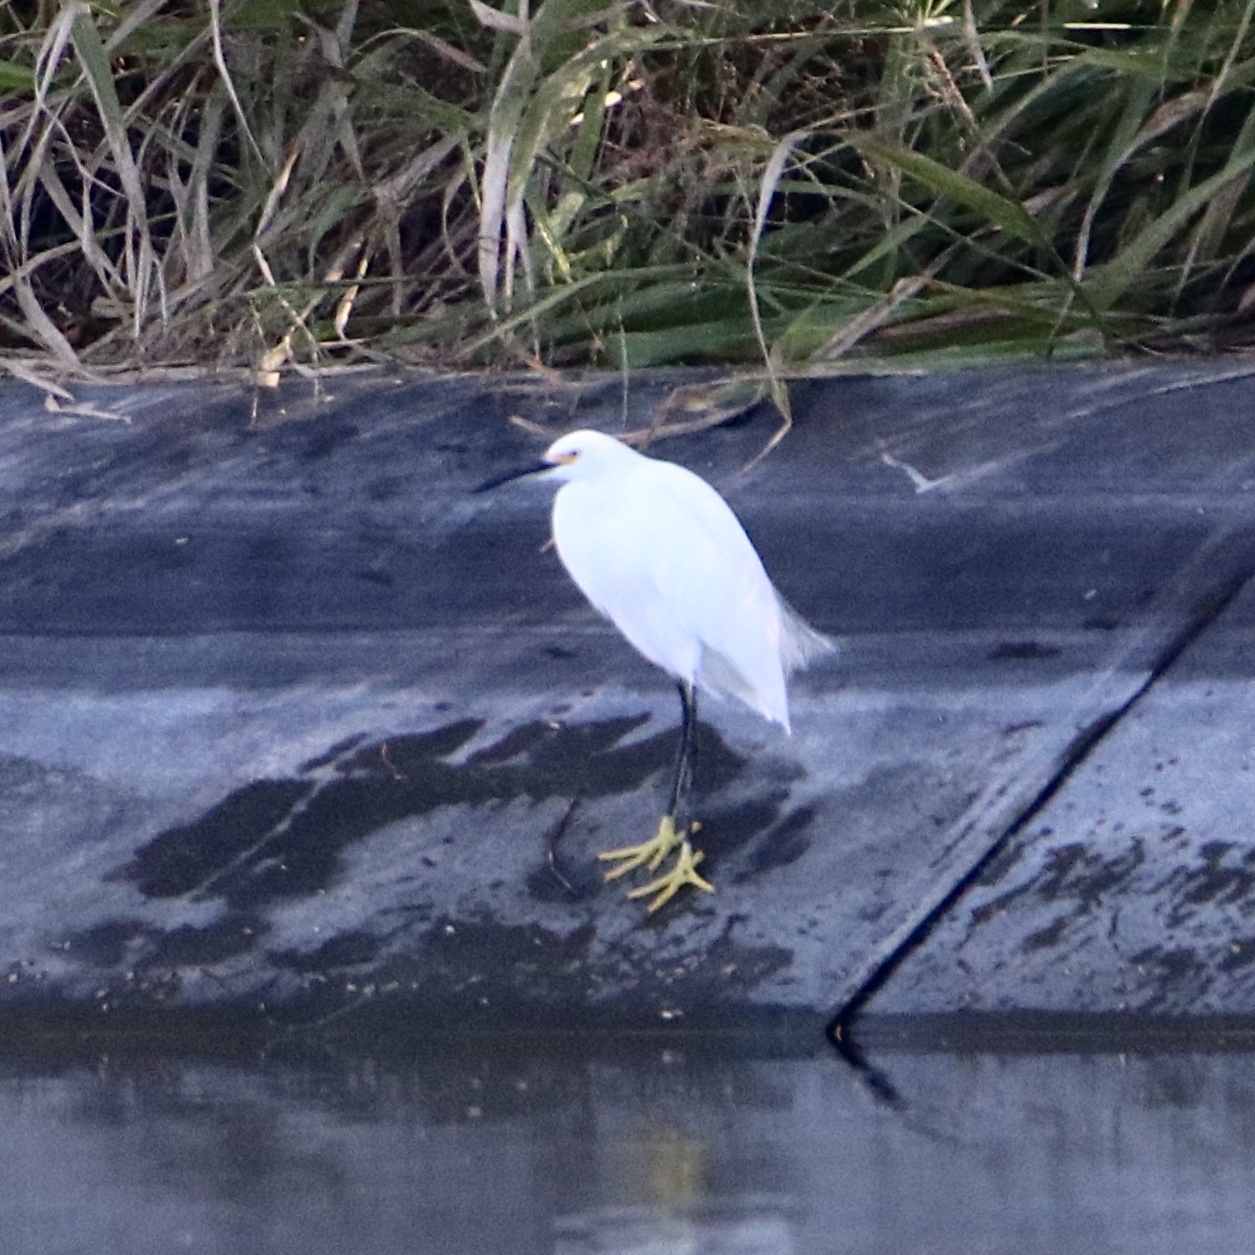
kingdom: Animalia
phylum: Chordata
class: Aves
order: Pelecaniformes
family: Ardeidae
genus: Egretta
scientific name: Egretta thula
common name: Snowy egret
